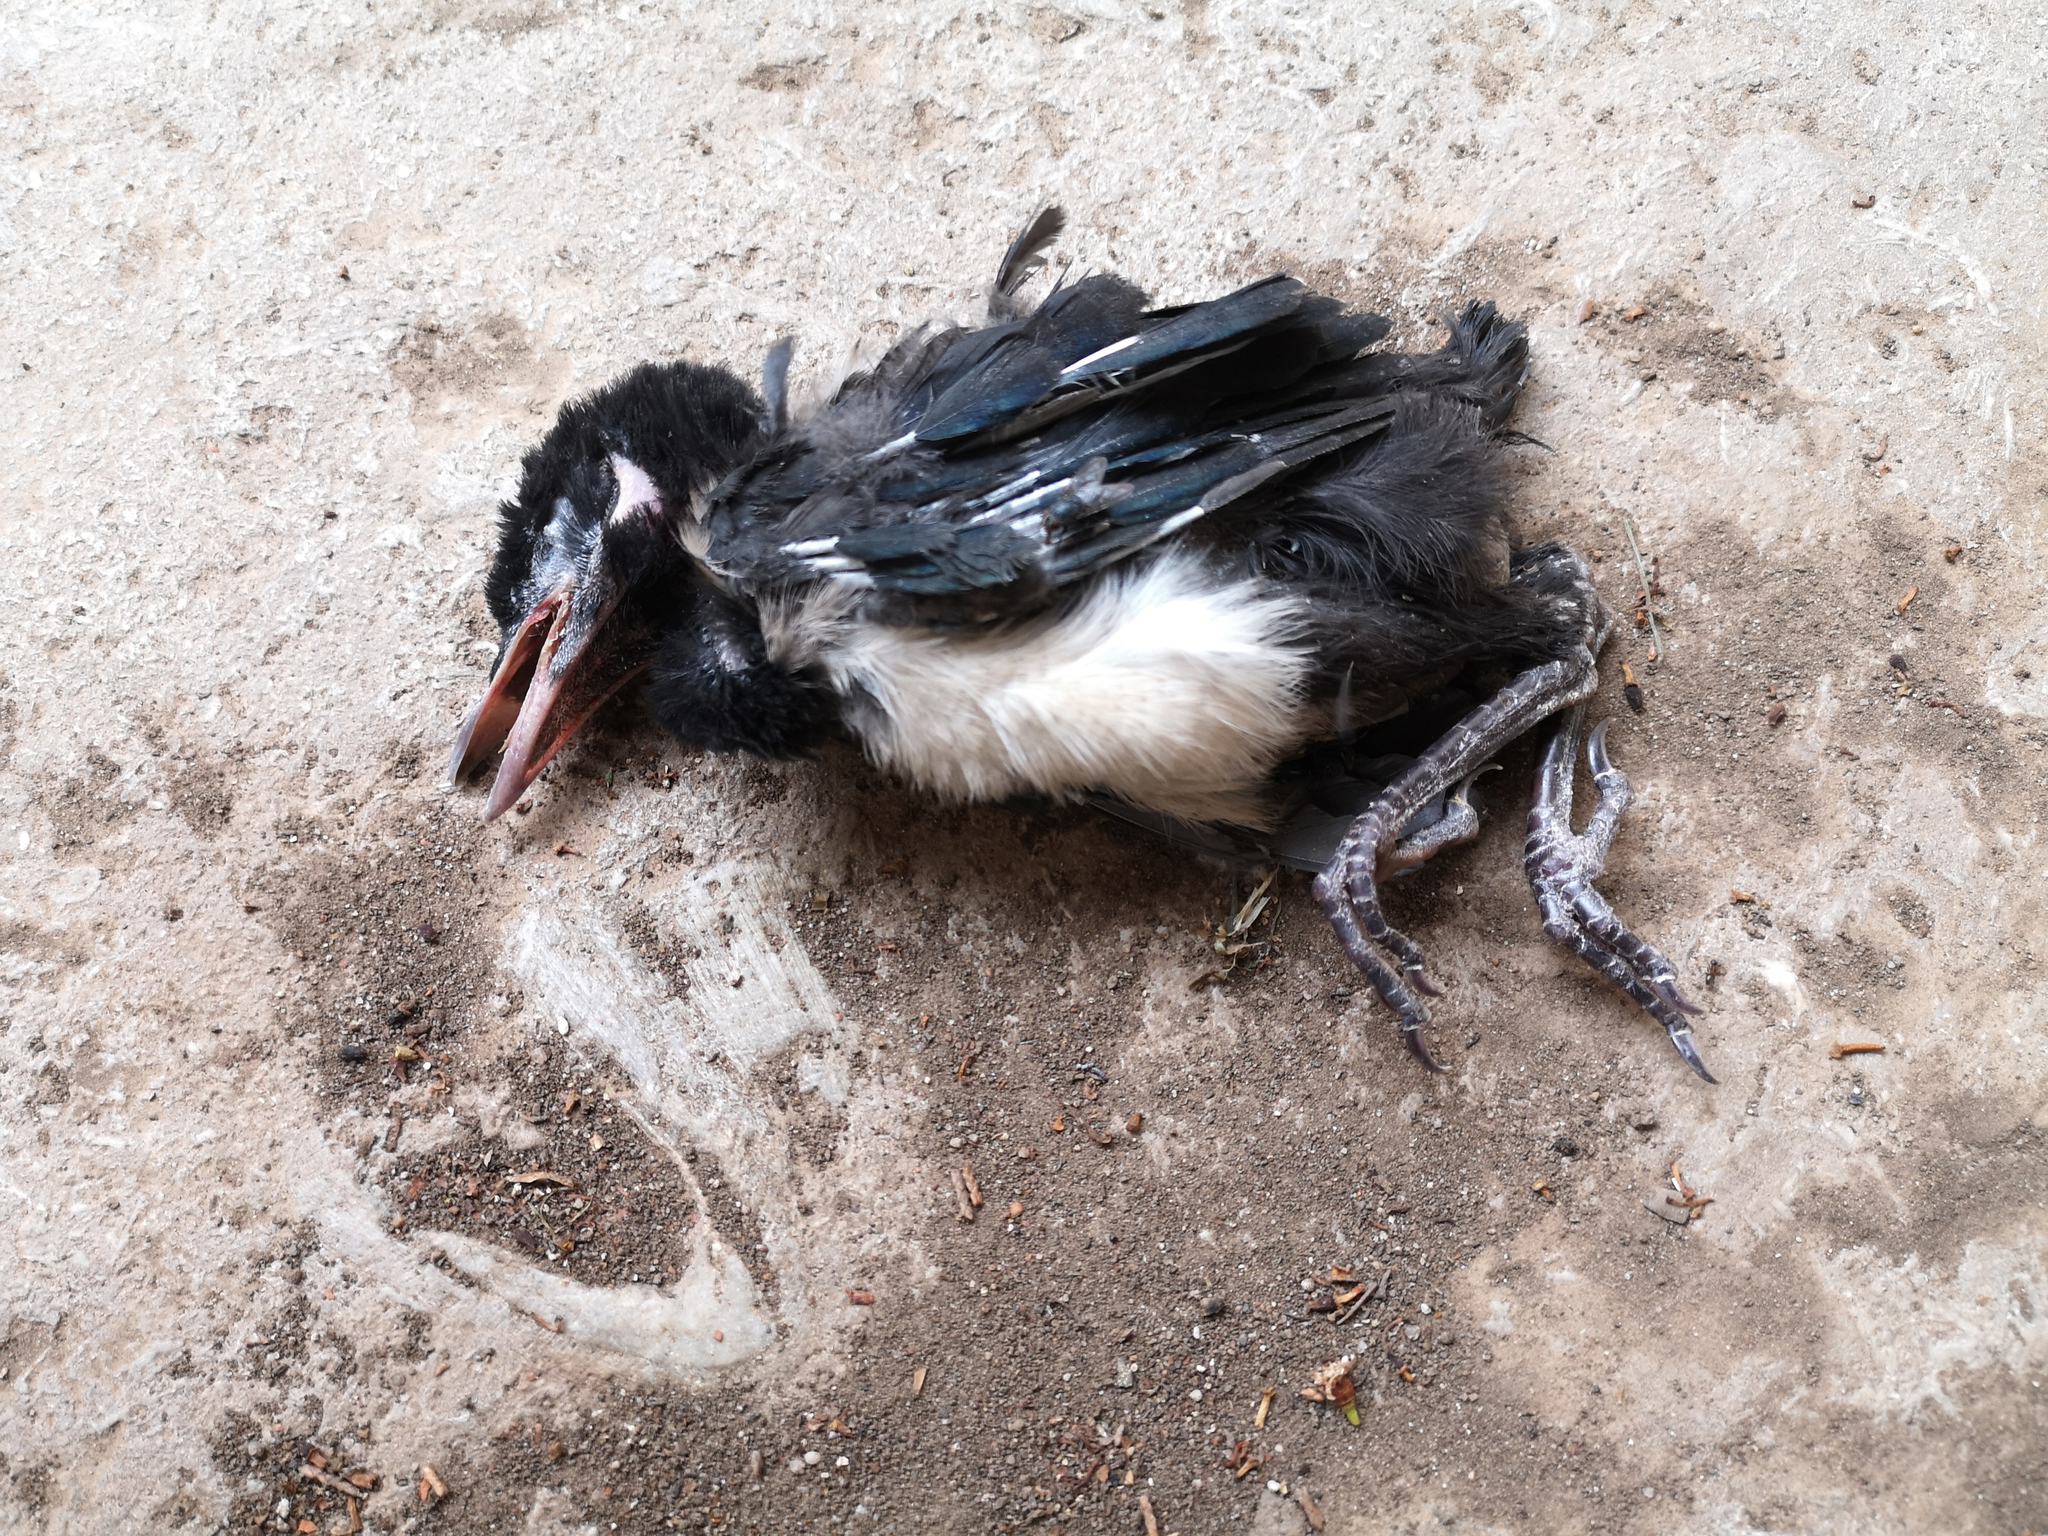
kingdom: Animalia
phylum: Chordata
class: Aves
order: Passeriformes
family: Corvidae
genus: Pica
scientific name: Pica pica
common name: Eurasian magpie
